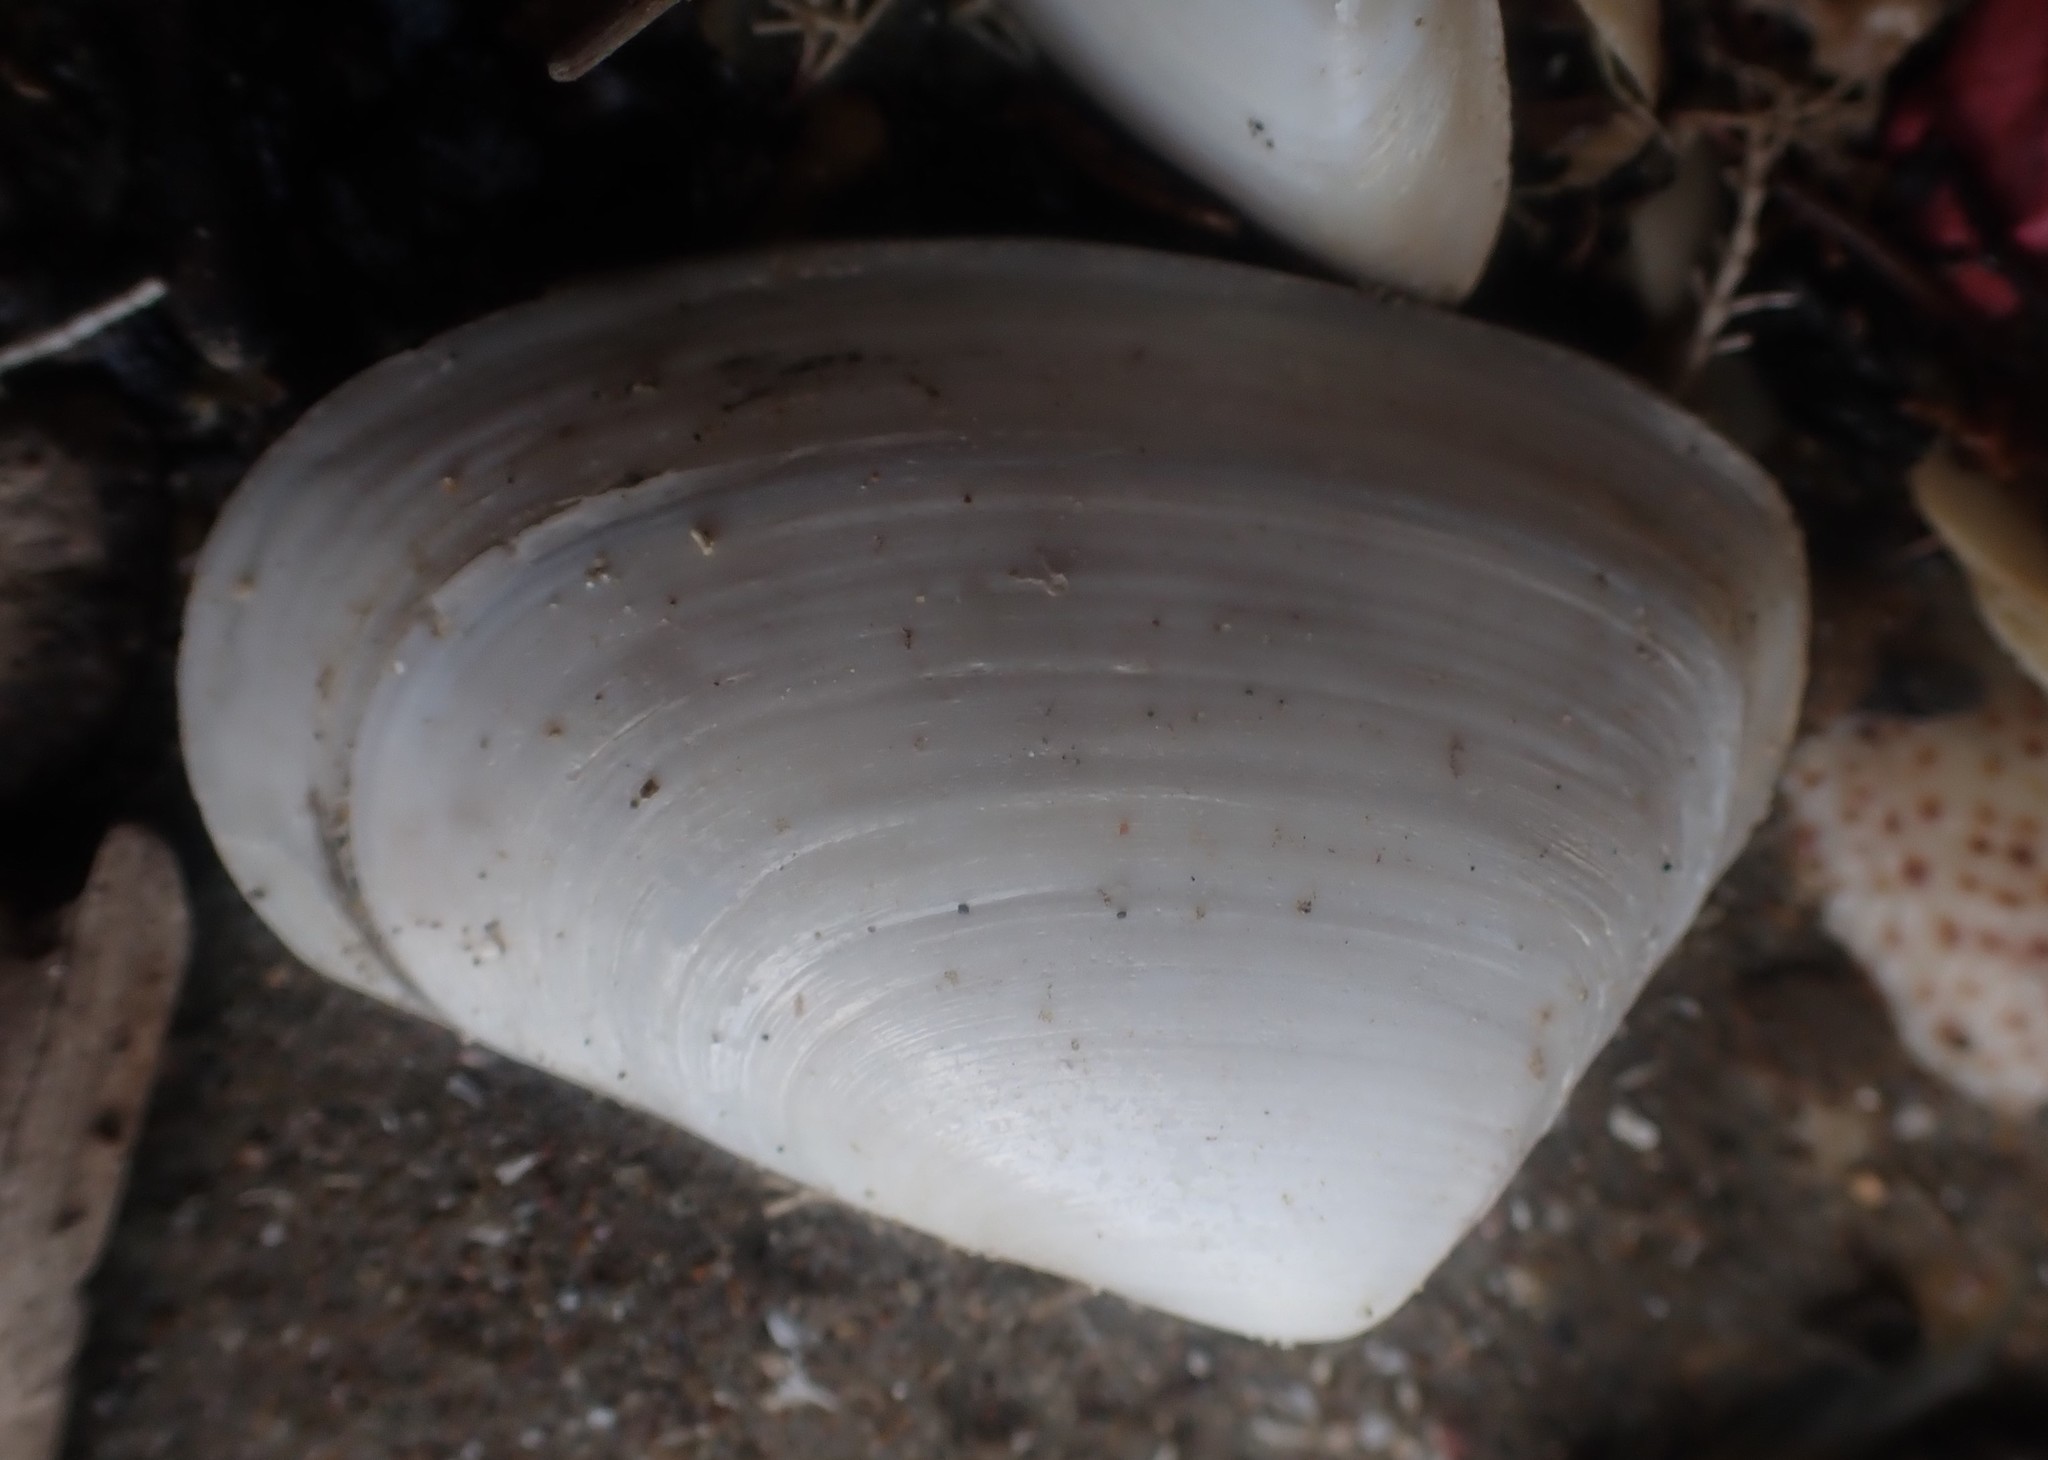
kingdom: Animalia
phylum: Mollusca
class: Bivalvia
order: Venerida
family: Mesodesmatidae
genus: Paphies
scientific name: Paphies subtriangulata
